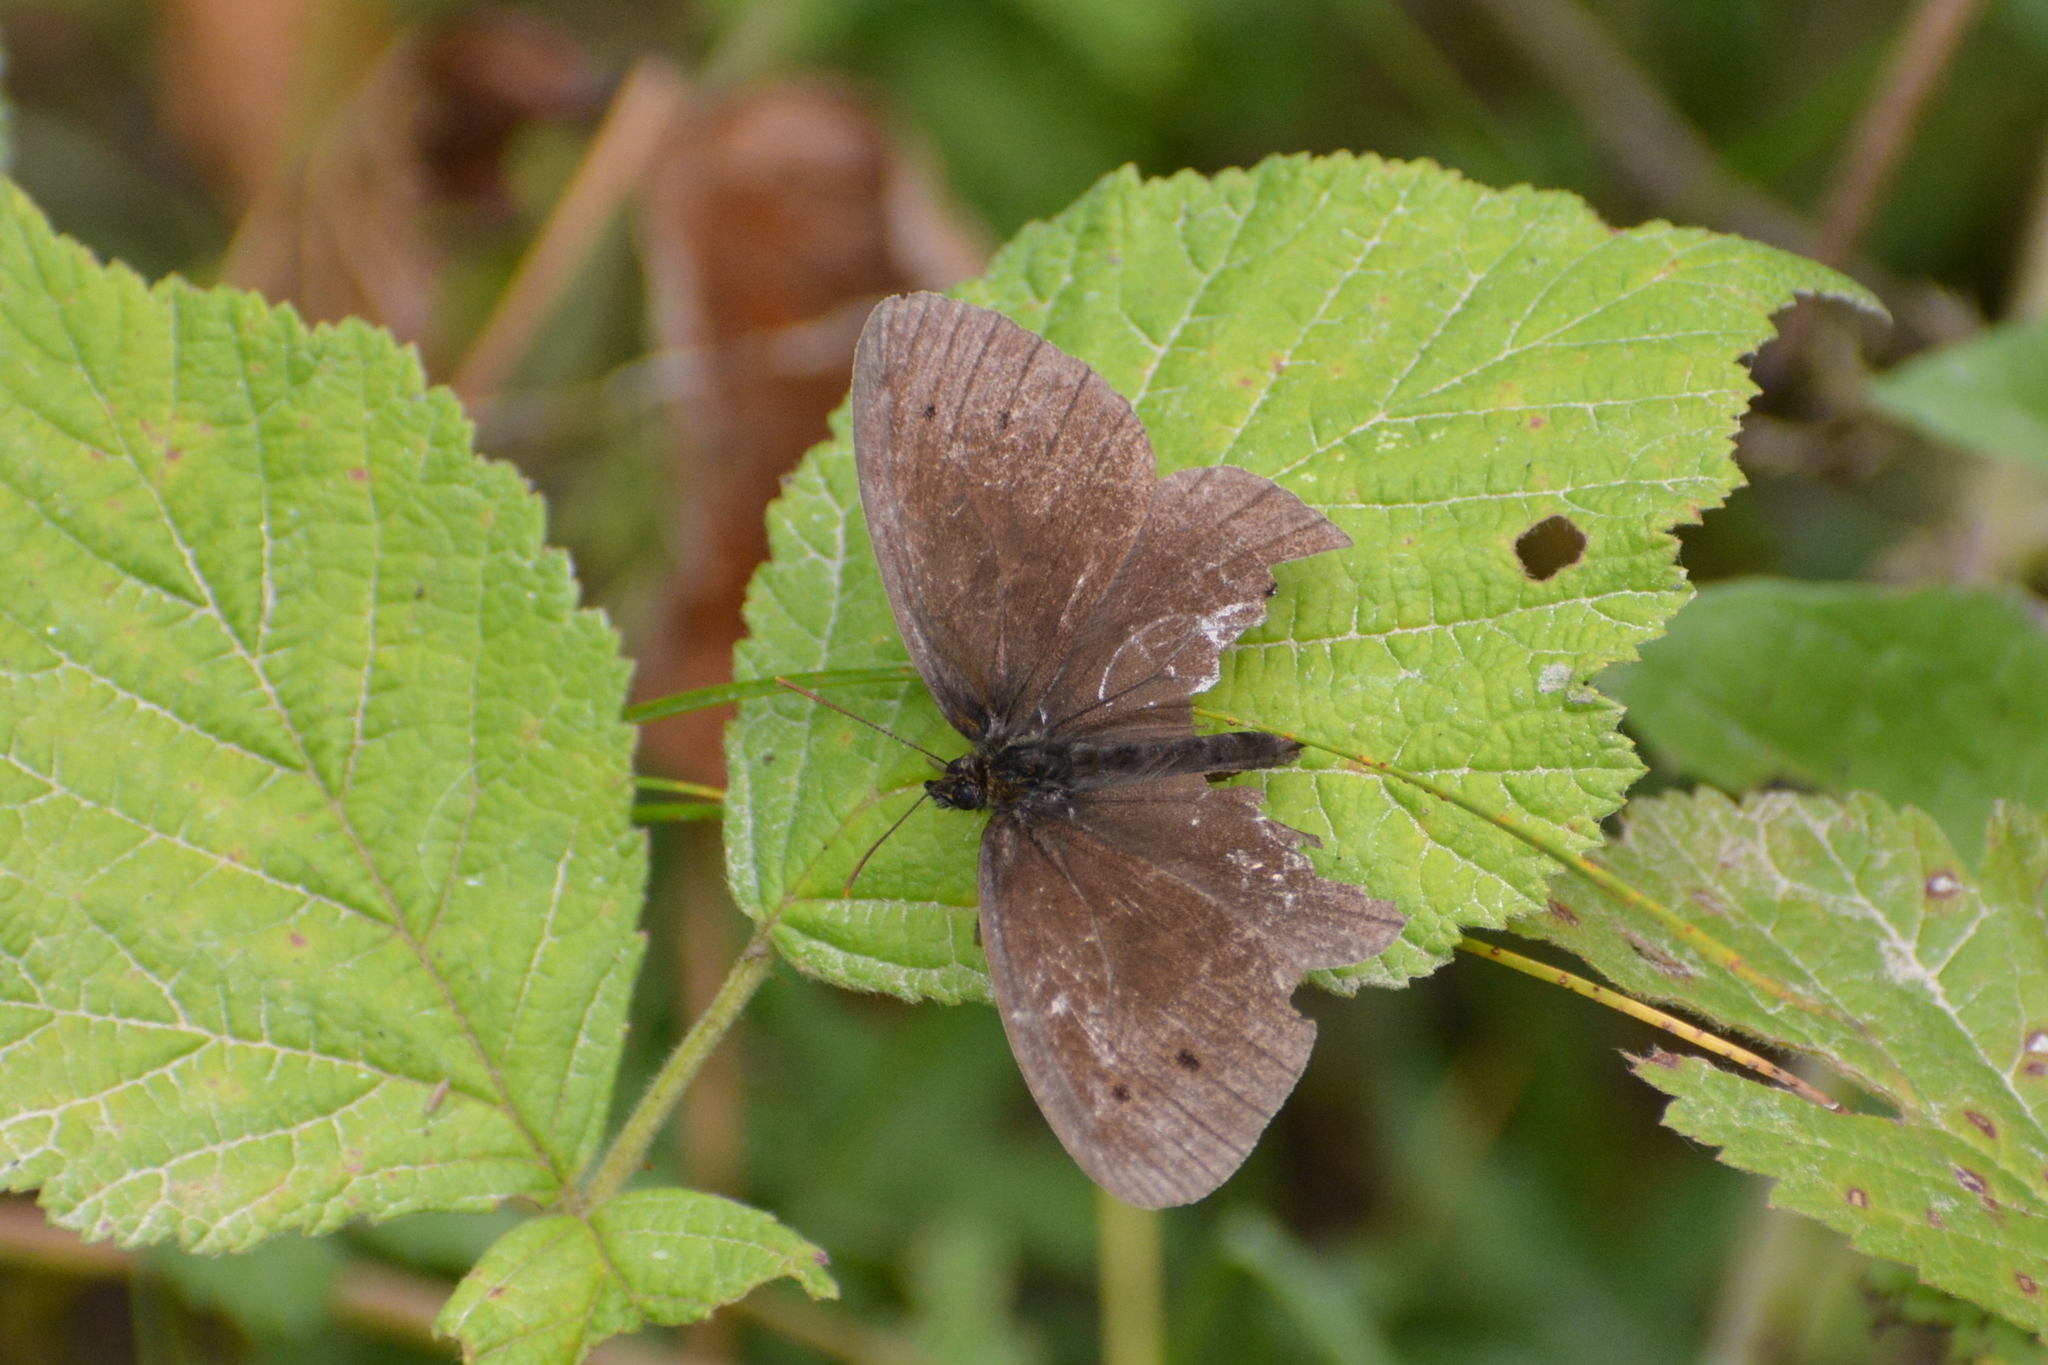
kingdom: Animalia
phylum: Arthropoda
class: Insecta
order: Lepidoptera
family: Nymphalidae
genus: Aphantopus
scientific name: Aphantopus hyperantus
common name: Ringlet
